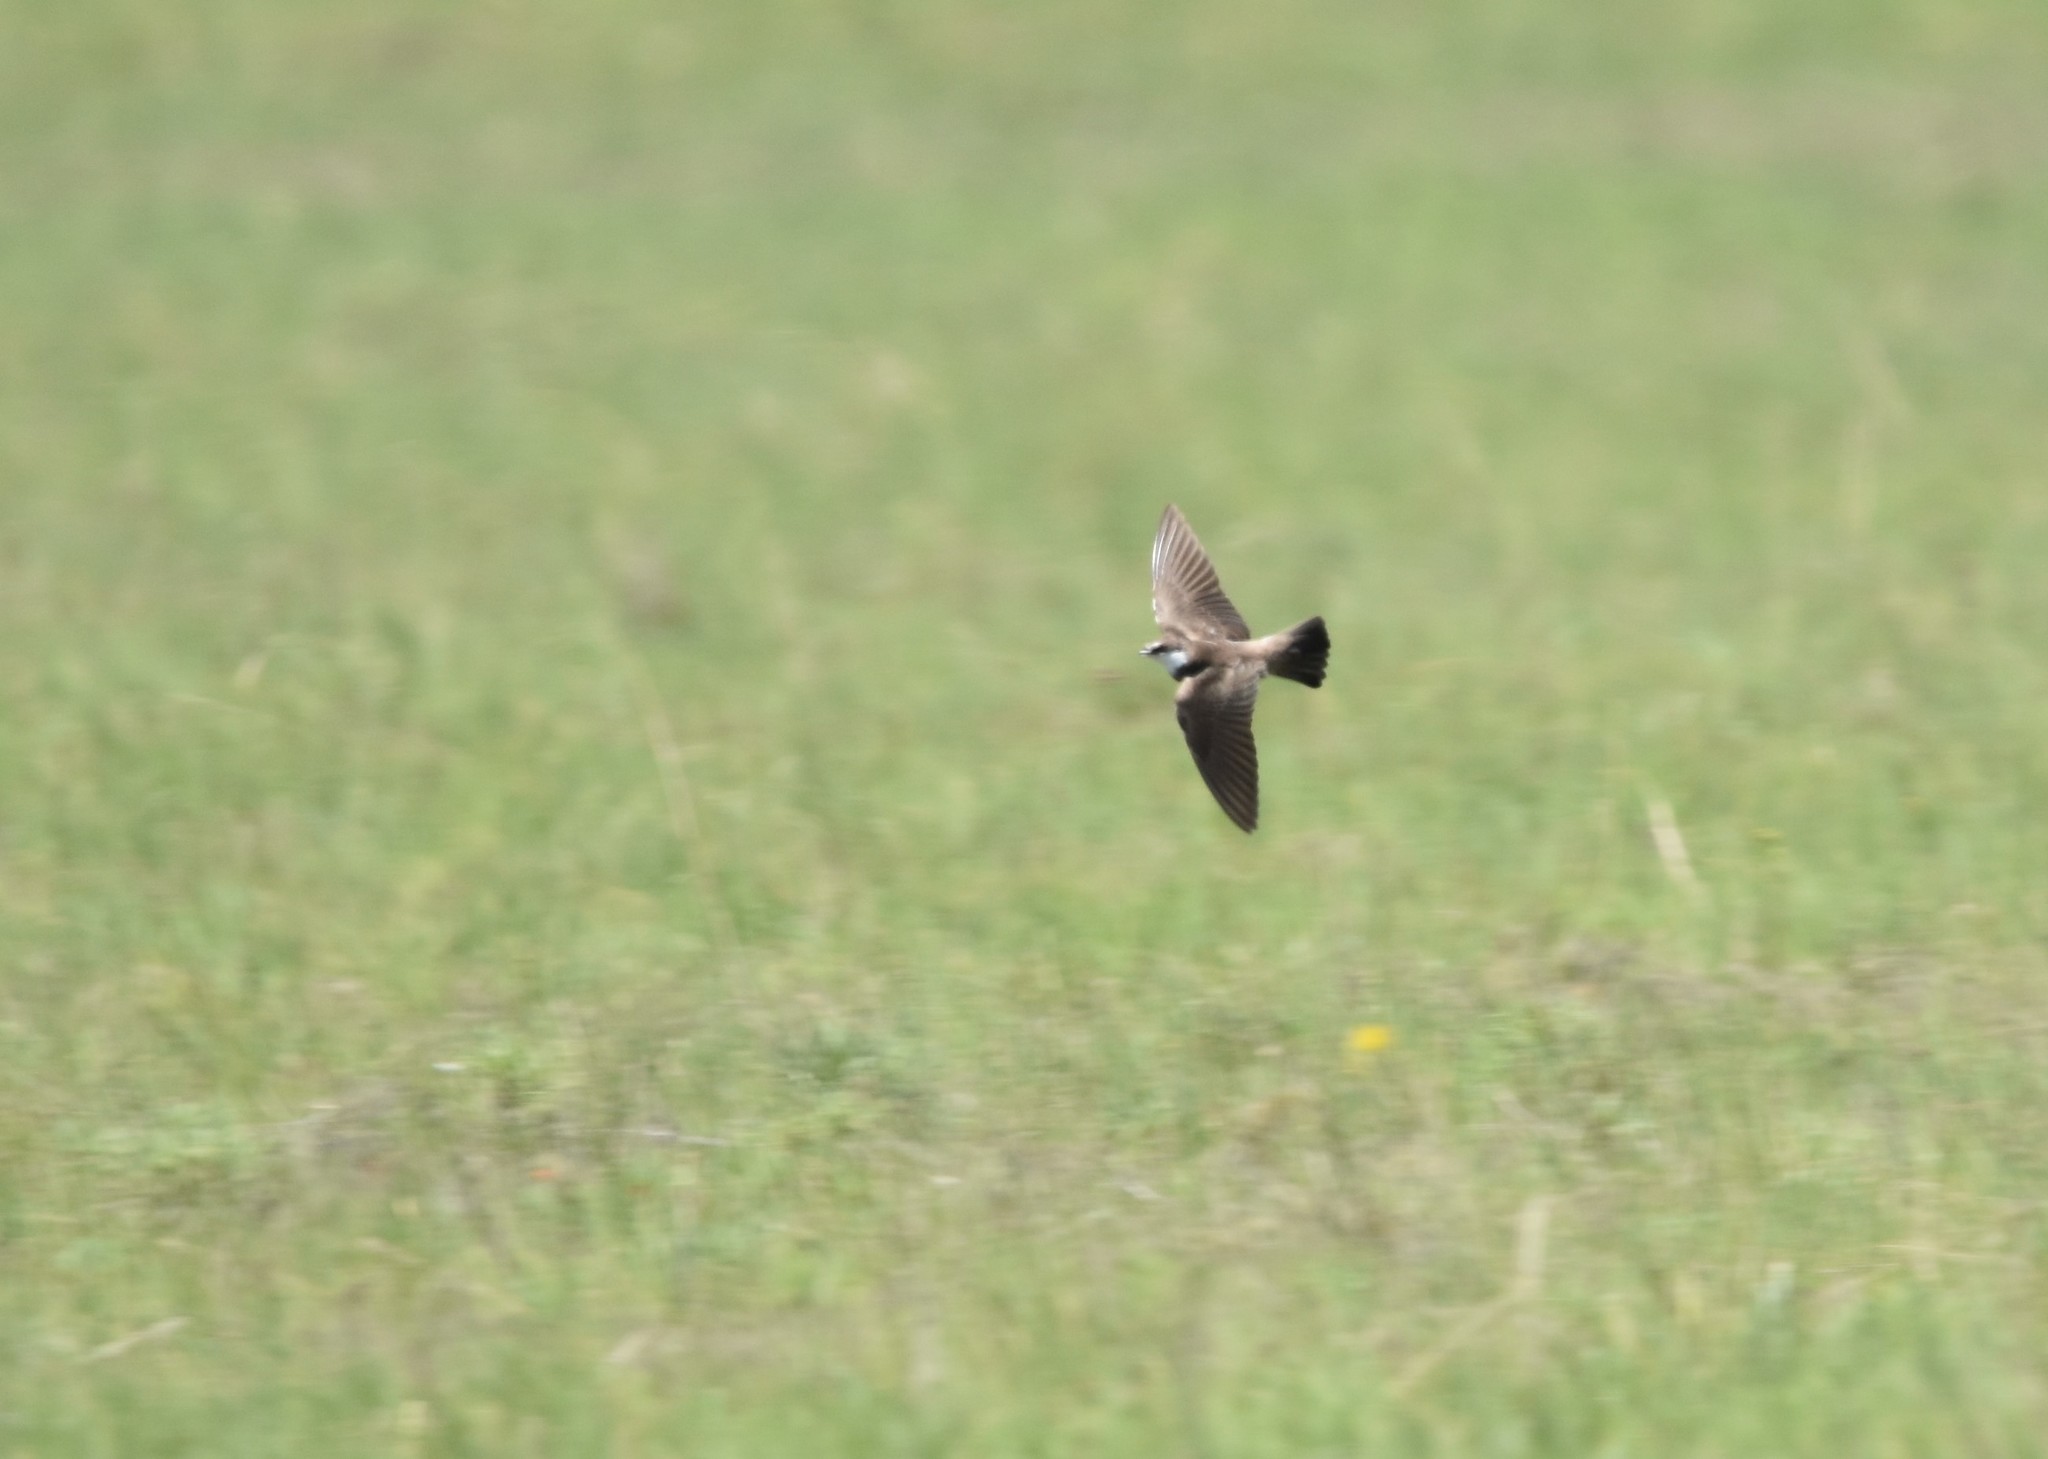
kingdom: Animalia
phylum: Chordata
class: Aves
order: Passeriformes
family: Hirundinidae
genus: Riparia
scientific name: Riparia cincta
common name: Banded martin
